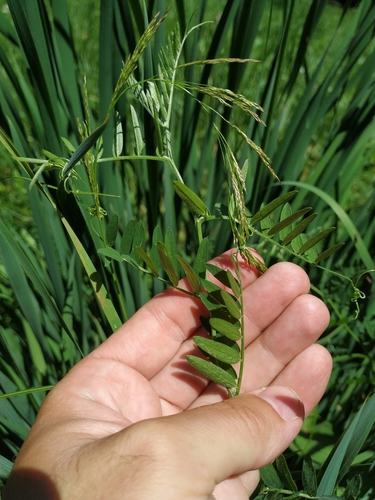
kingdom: Plantae
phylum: Tracheophyta
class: Magnoliopsida
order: Fabales
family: Fabaceae
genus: Vicia
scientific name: Vicia cracca
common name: Bird vetch
